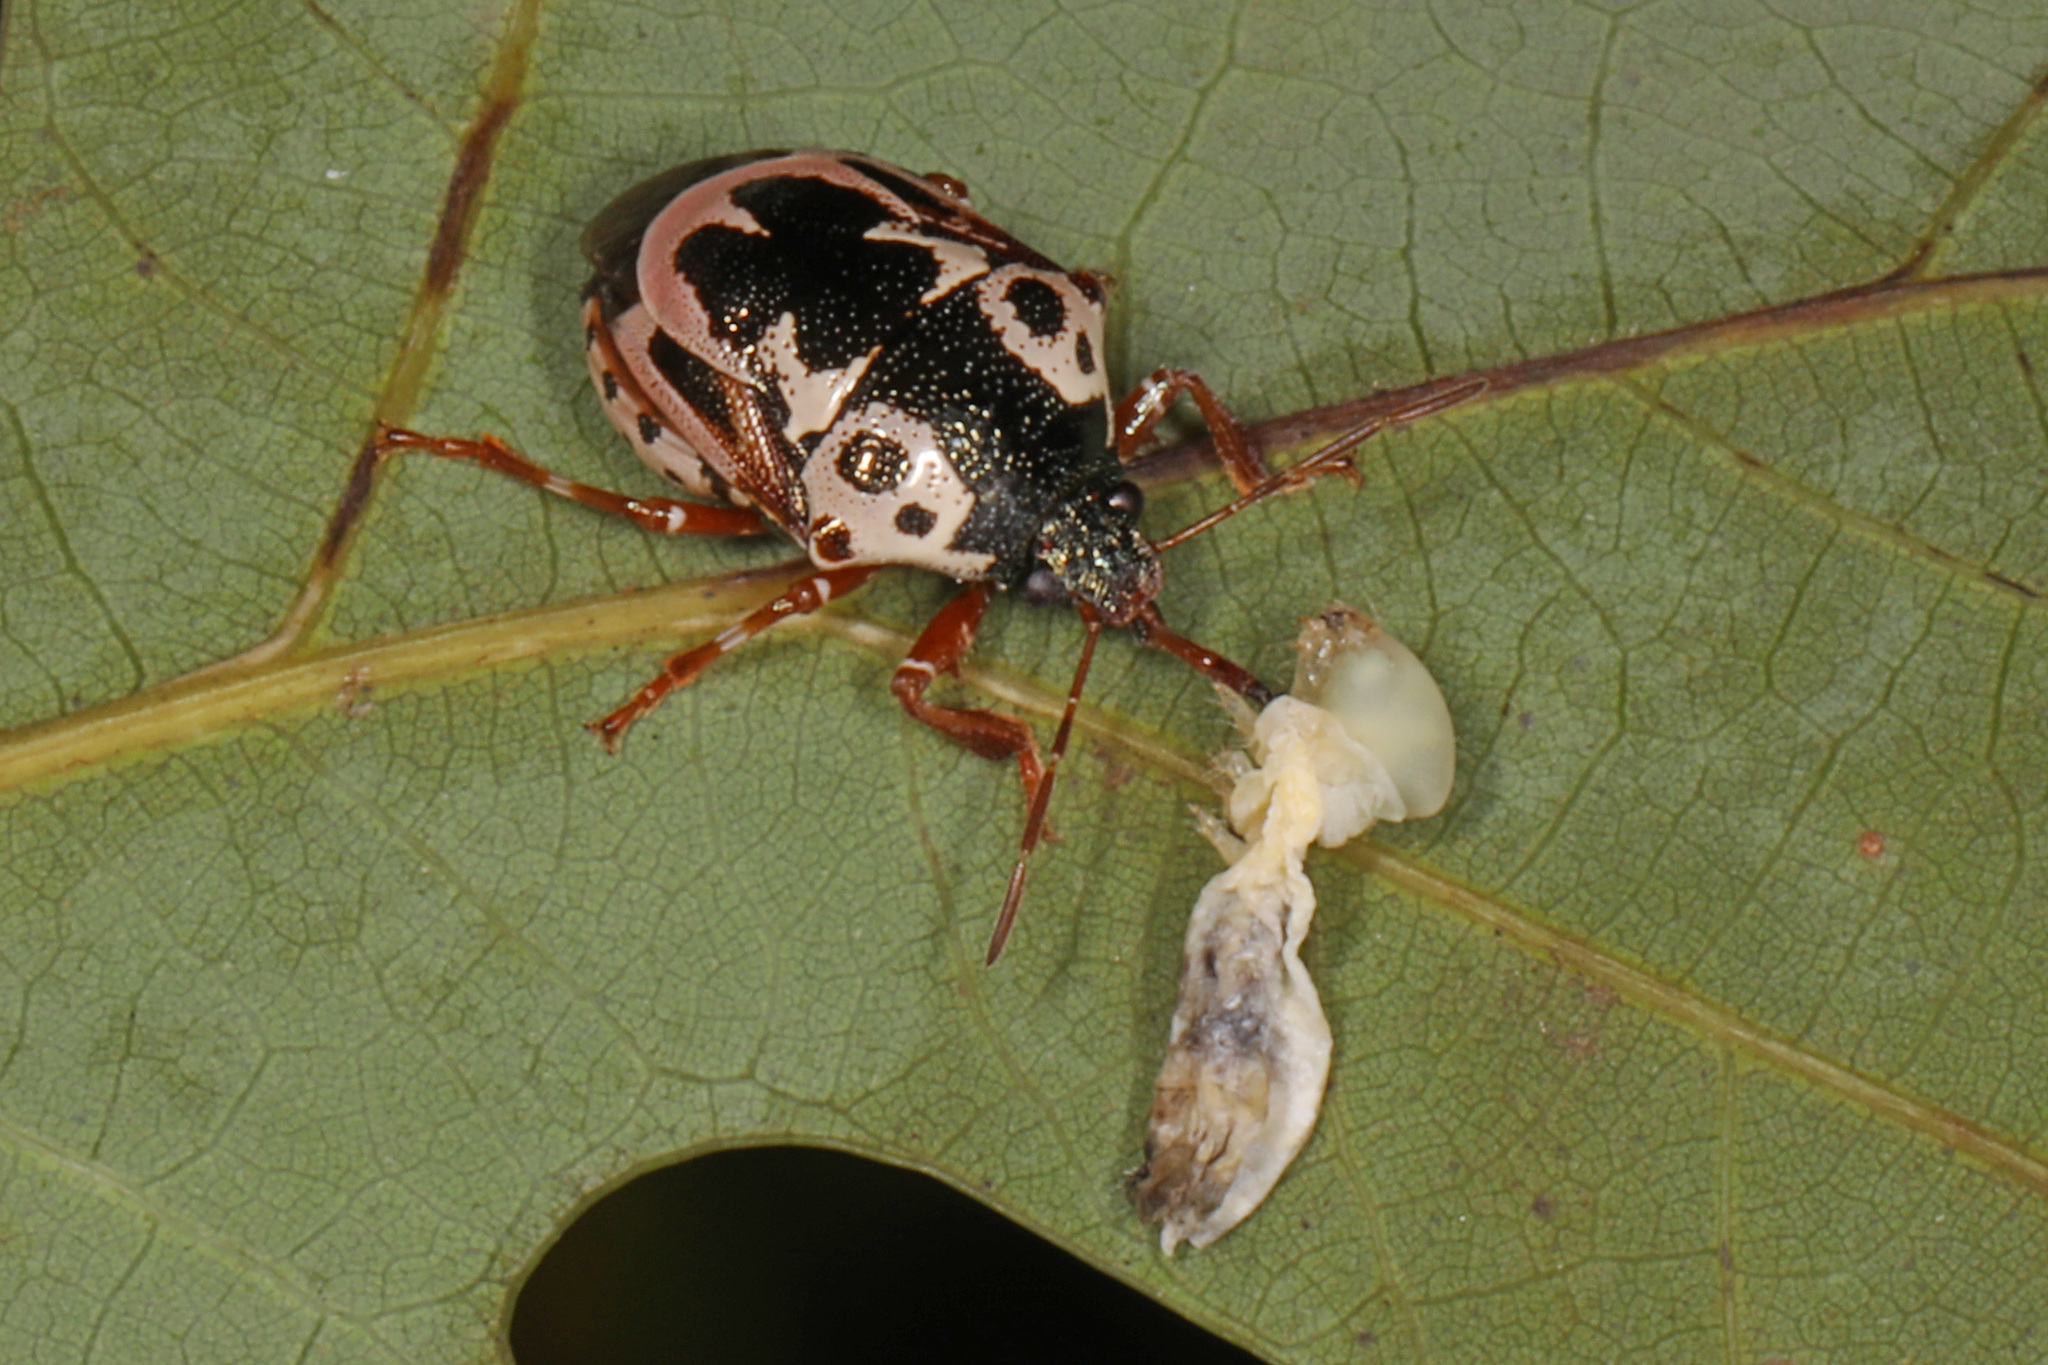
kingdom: Animalia
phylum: Arthropoda
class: Insecta
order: Hemiptera
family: Pentatomidae
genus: Stiretrus
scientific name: Stiretrus anchorago
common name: Anchor stink bug
